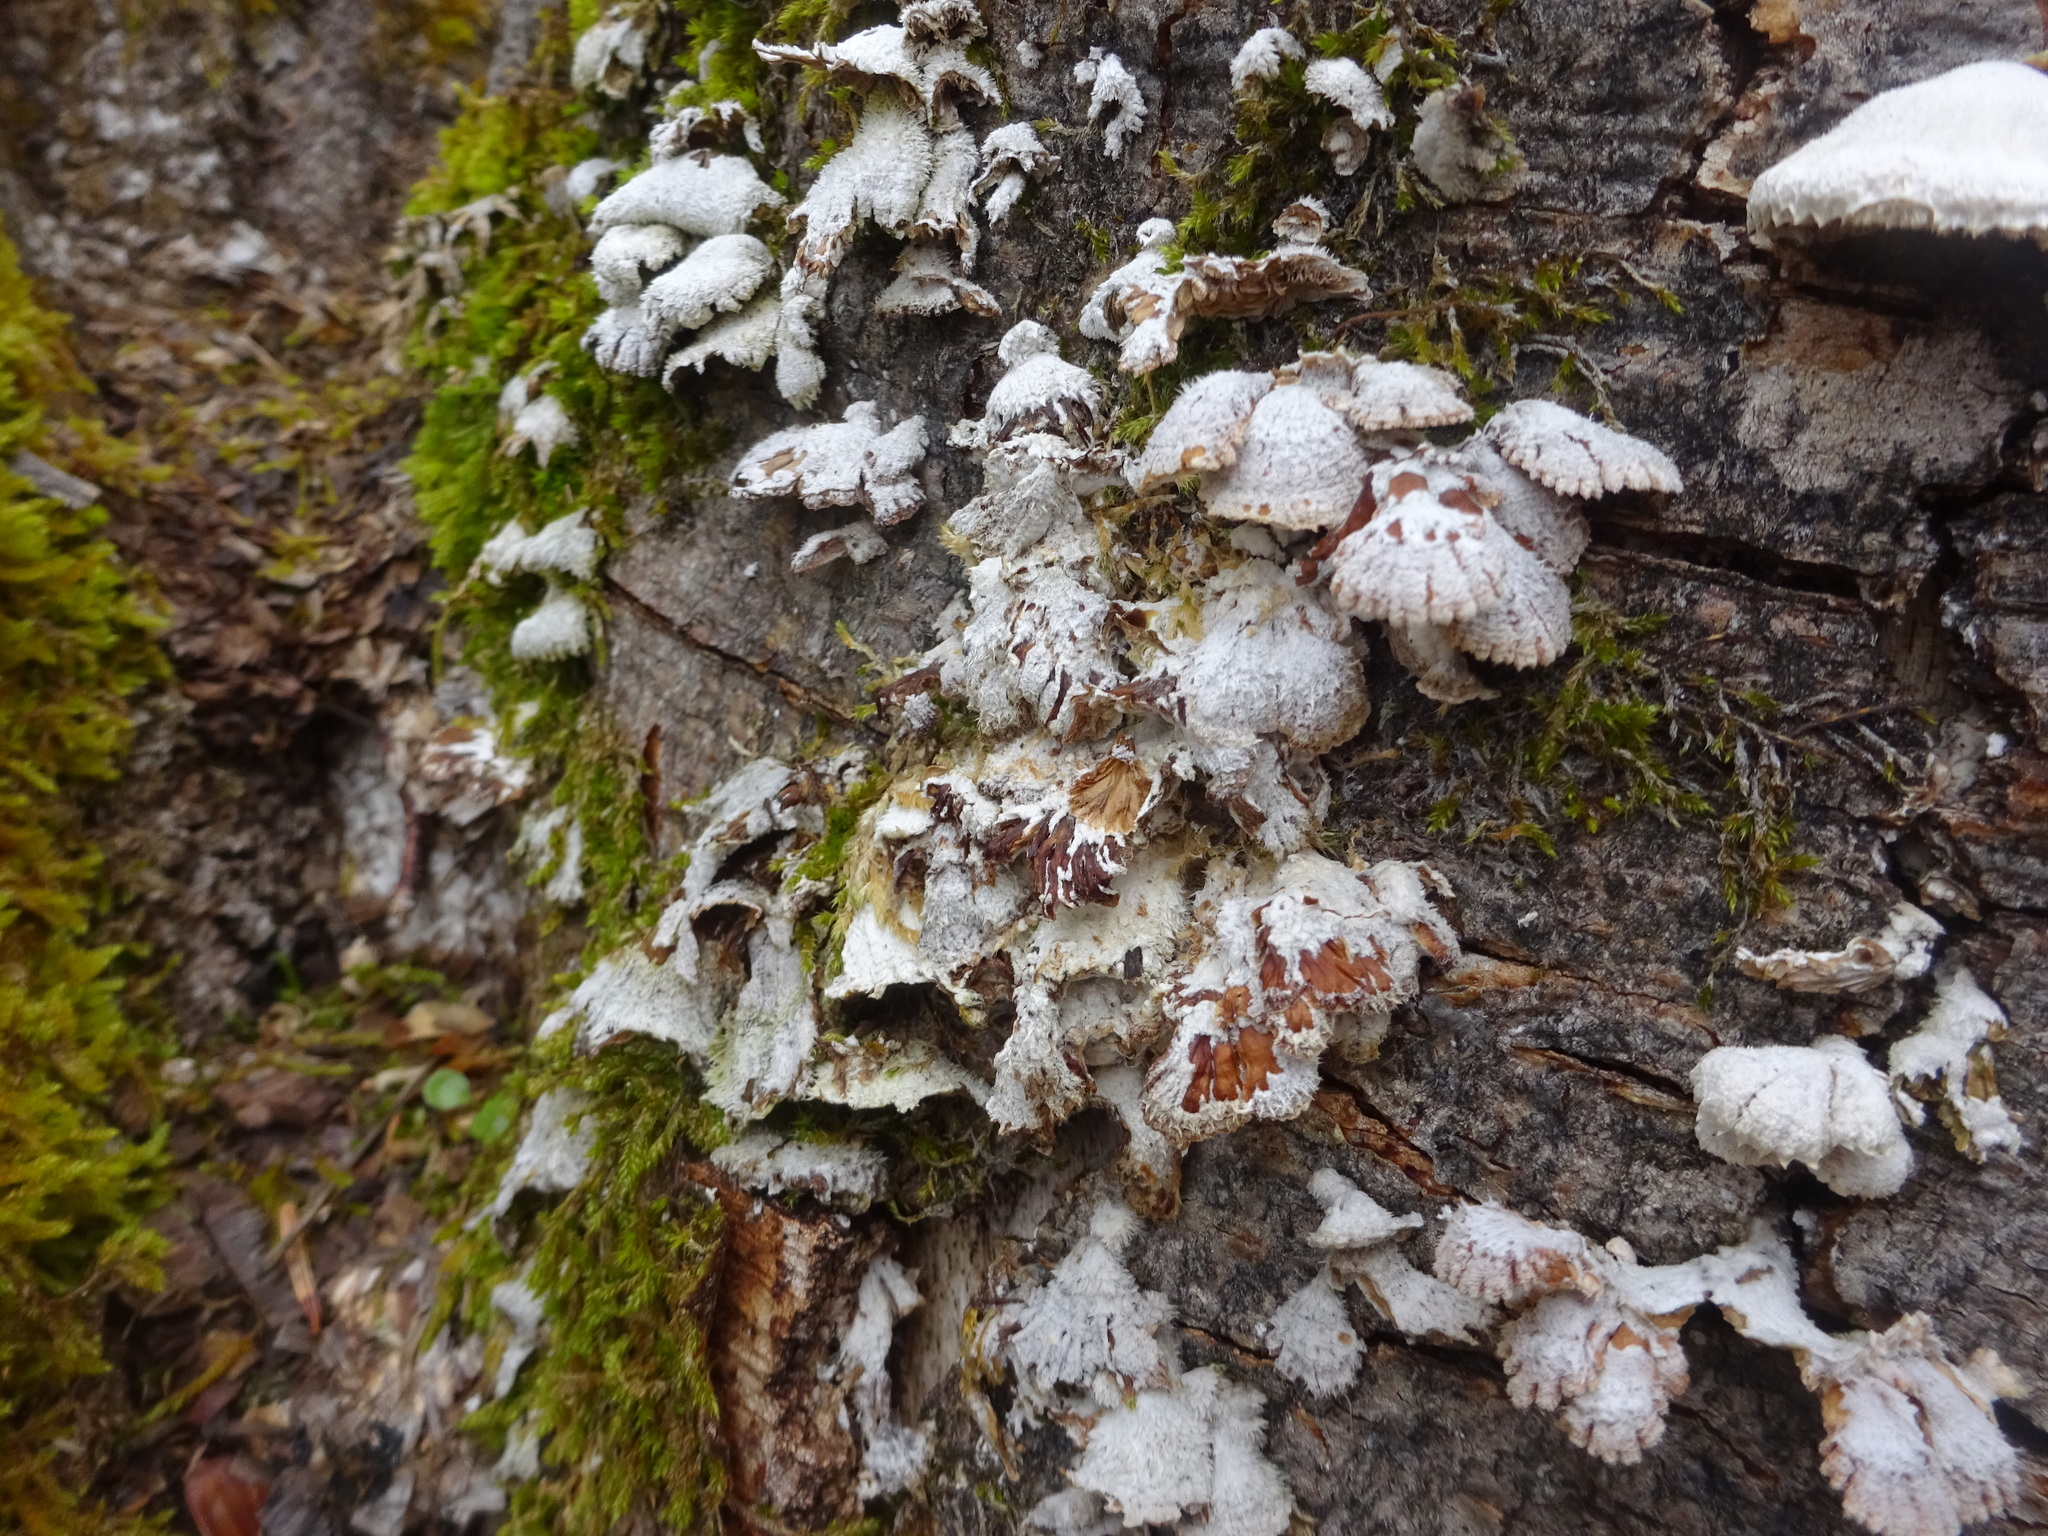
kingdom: Fungi
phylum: Basidiomycota
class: Agaricomycetes
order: Agaricales
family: Schizophyllaceae
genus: Schizophyllum
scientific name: Schizophyllum commune
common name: Common porecrust
